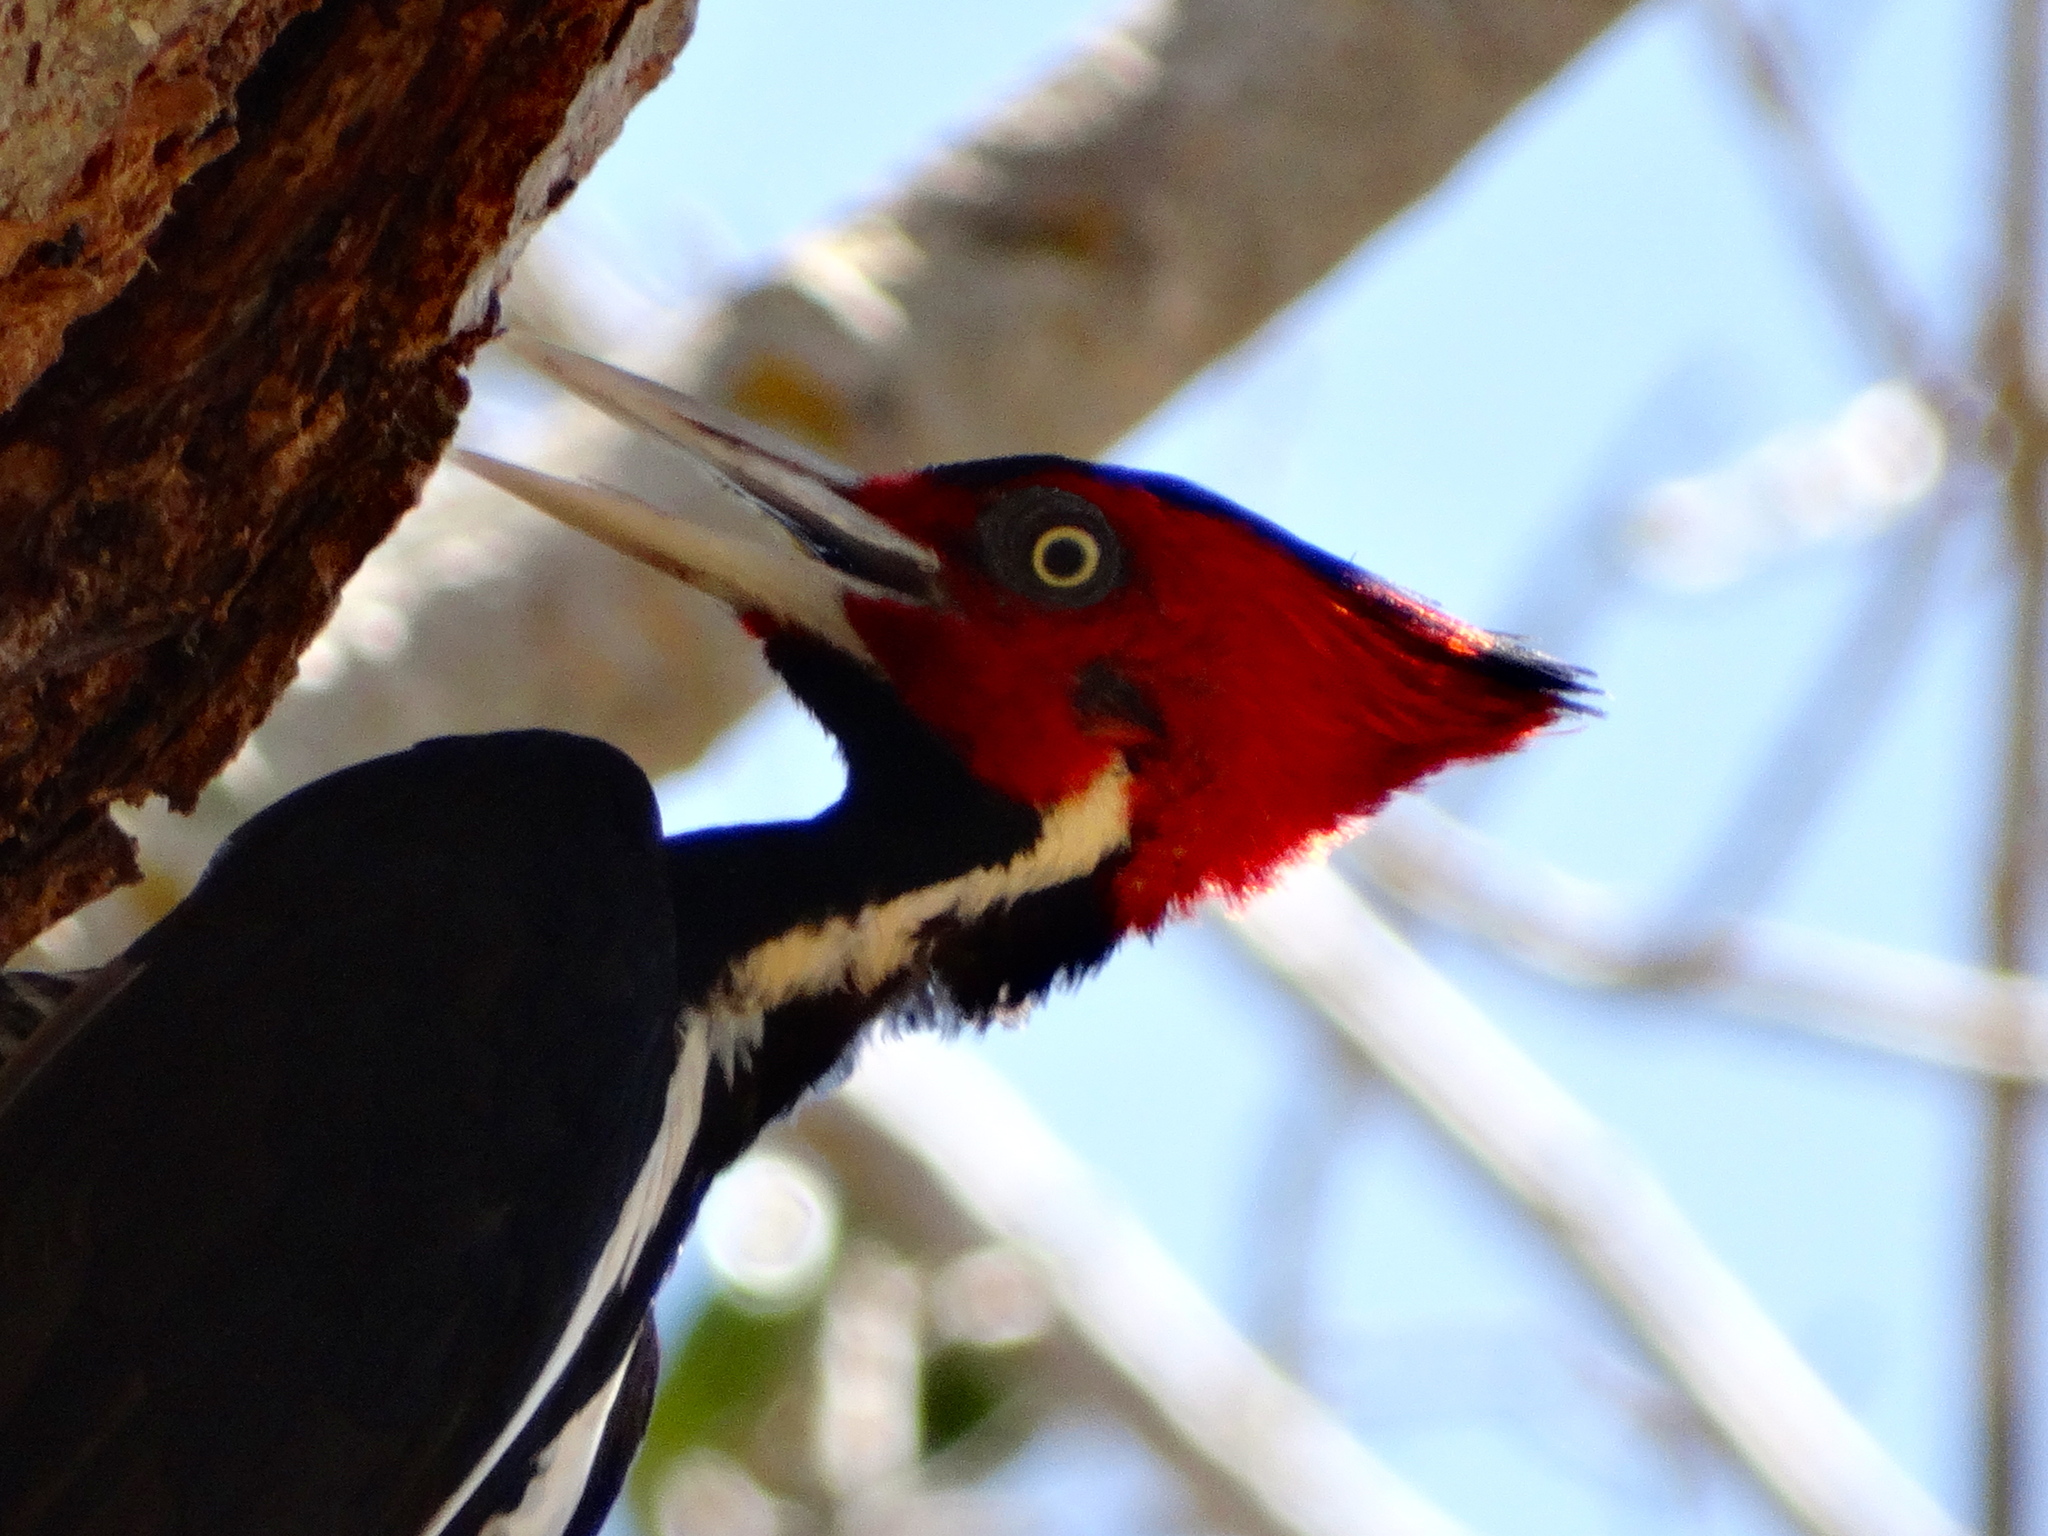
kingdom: Animalia
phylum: Chordata
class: Aves
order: Piciformes
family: Picidae
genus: Campephilus
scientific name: Campephilus guatemalensis
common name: Pale-billed woodpecker
